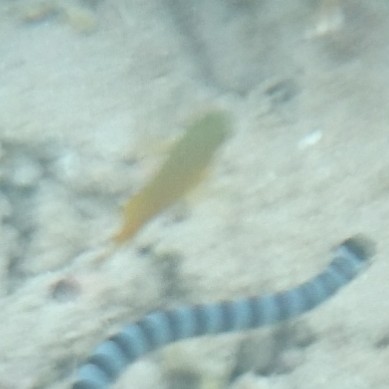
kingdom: Animalia
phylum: Chordata
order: Perciformes
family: Pomacentridae
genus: Pomacentrus
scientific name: Pomacentrus moluccensis
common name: Lemon damsel
